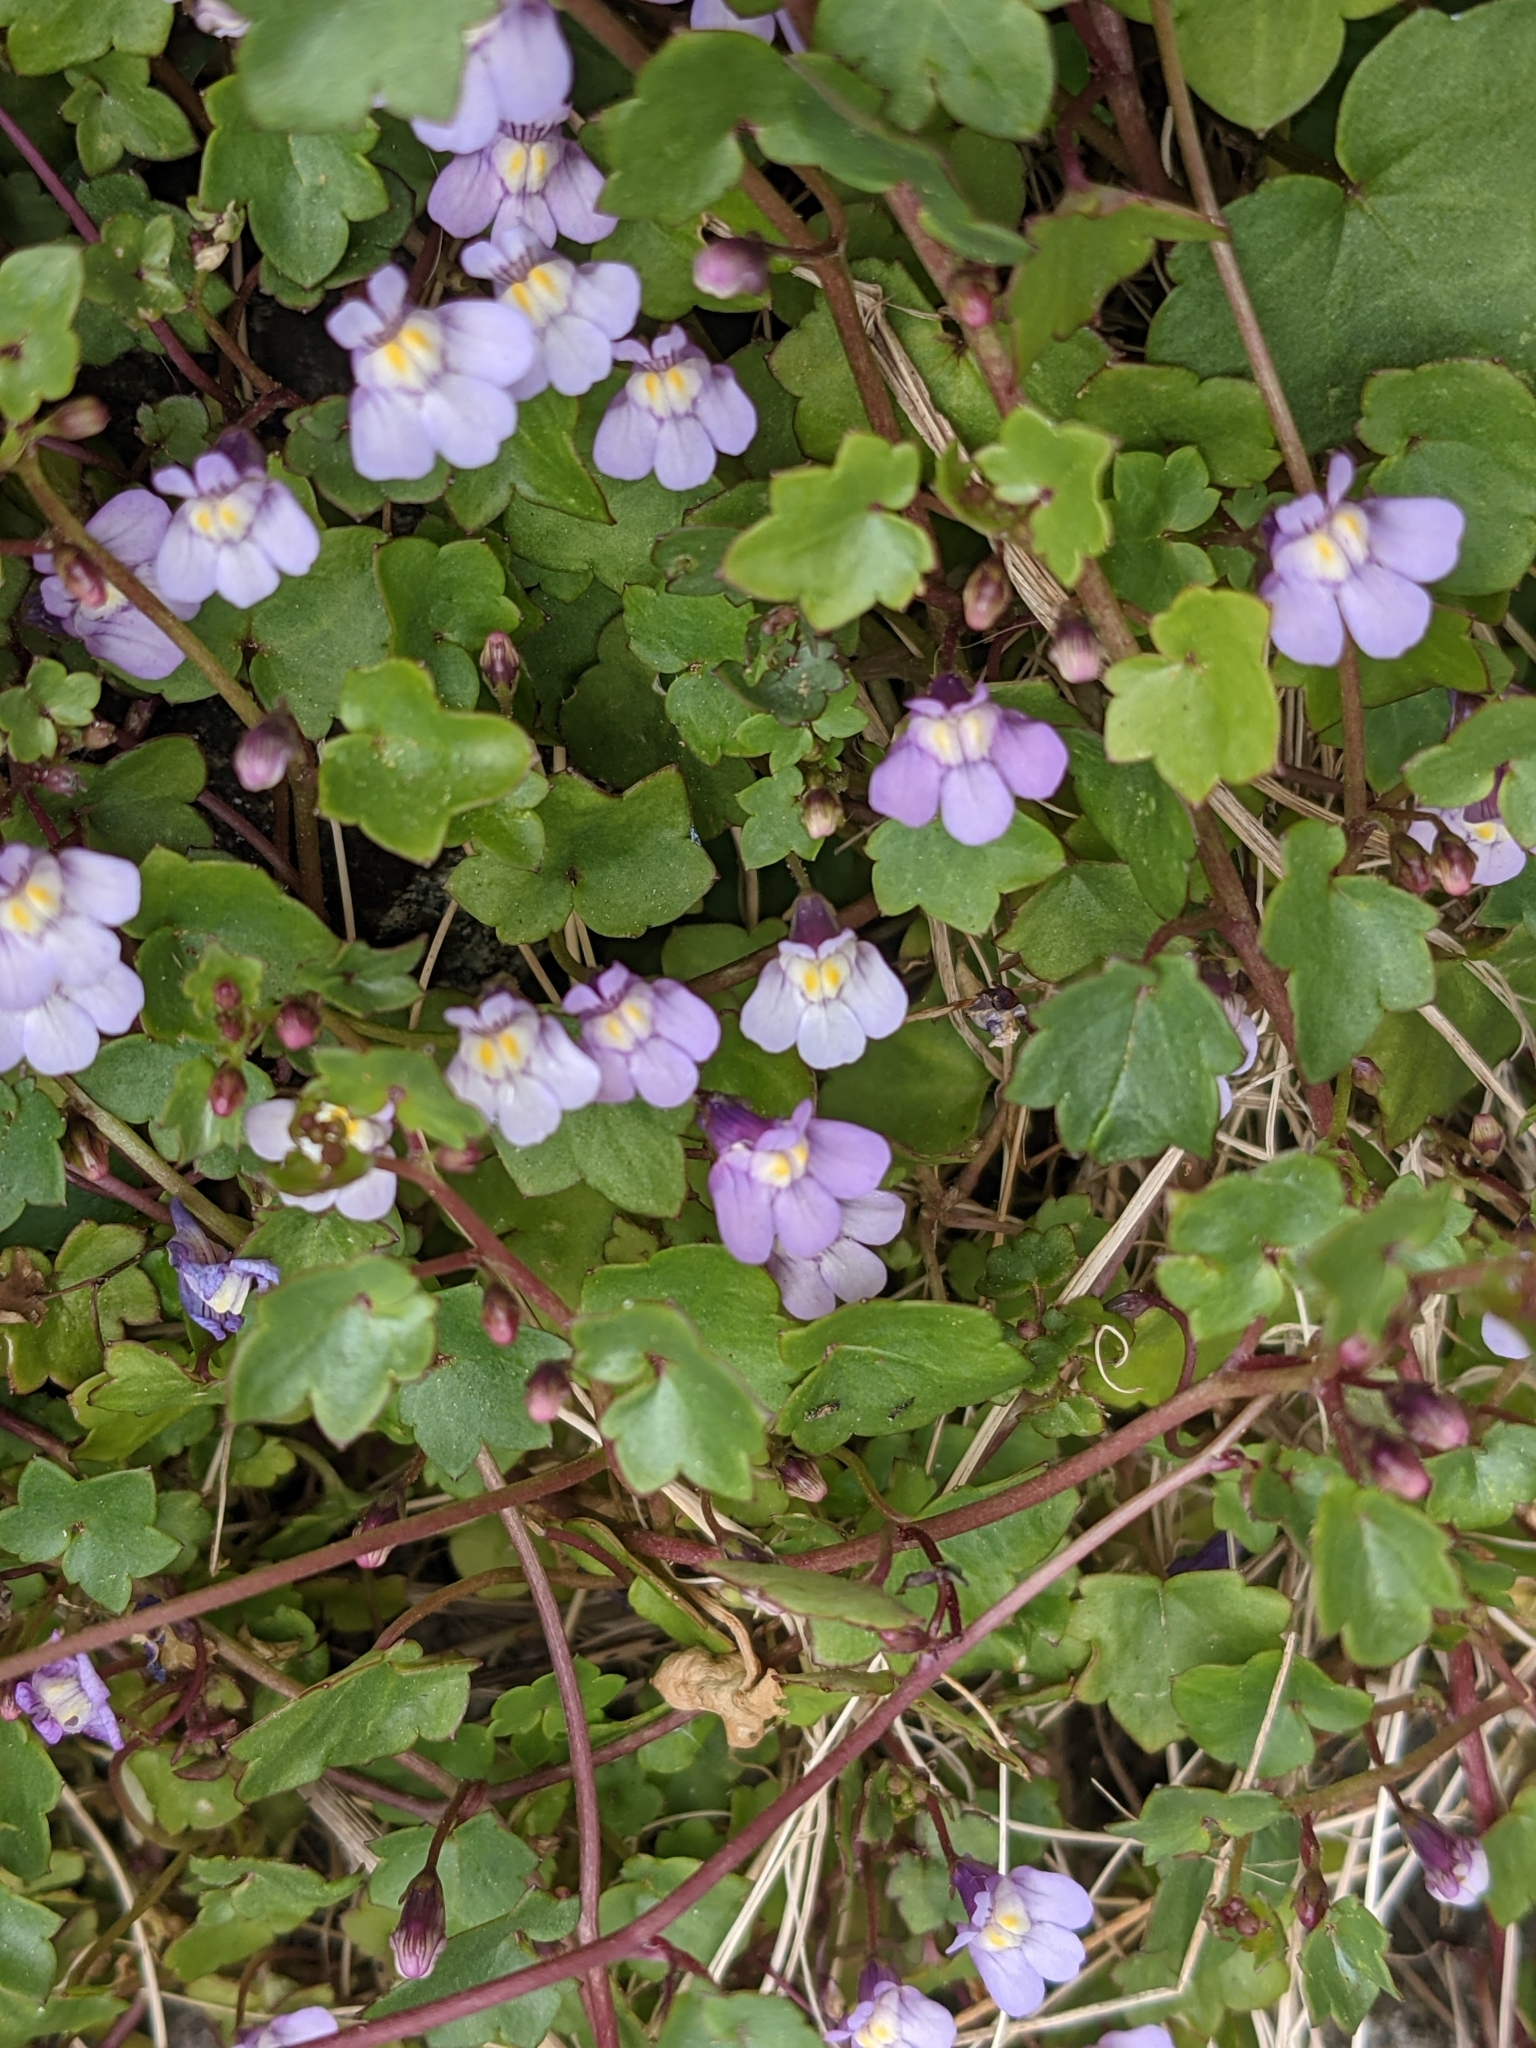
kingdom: Plantae
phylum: Tracheophyta
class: Magnoliopsida
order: Lamiales
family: Plantaginaceae
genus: Cymbalaria
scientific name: Cymbalaria muralis
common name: Ivy-leaved toadflax
